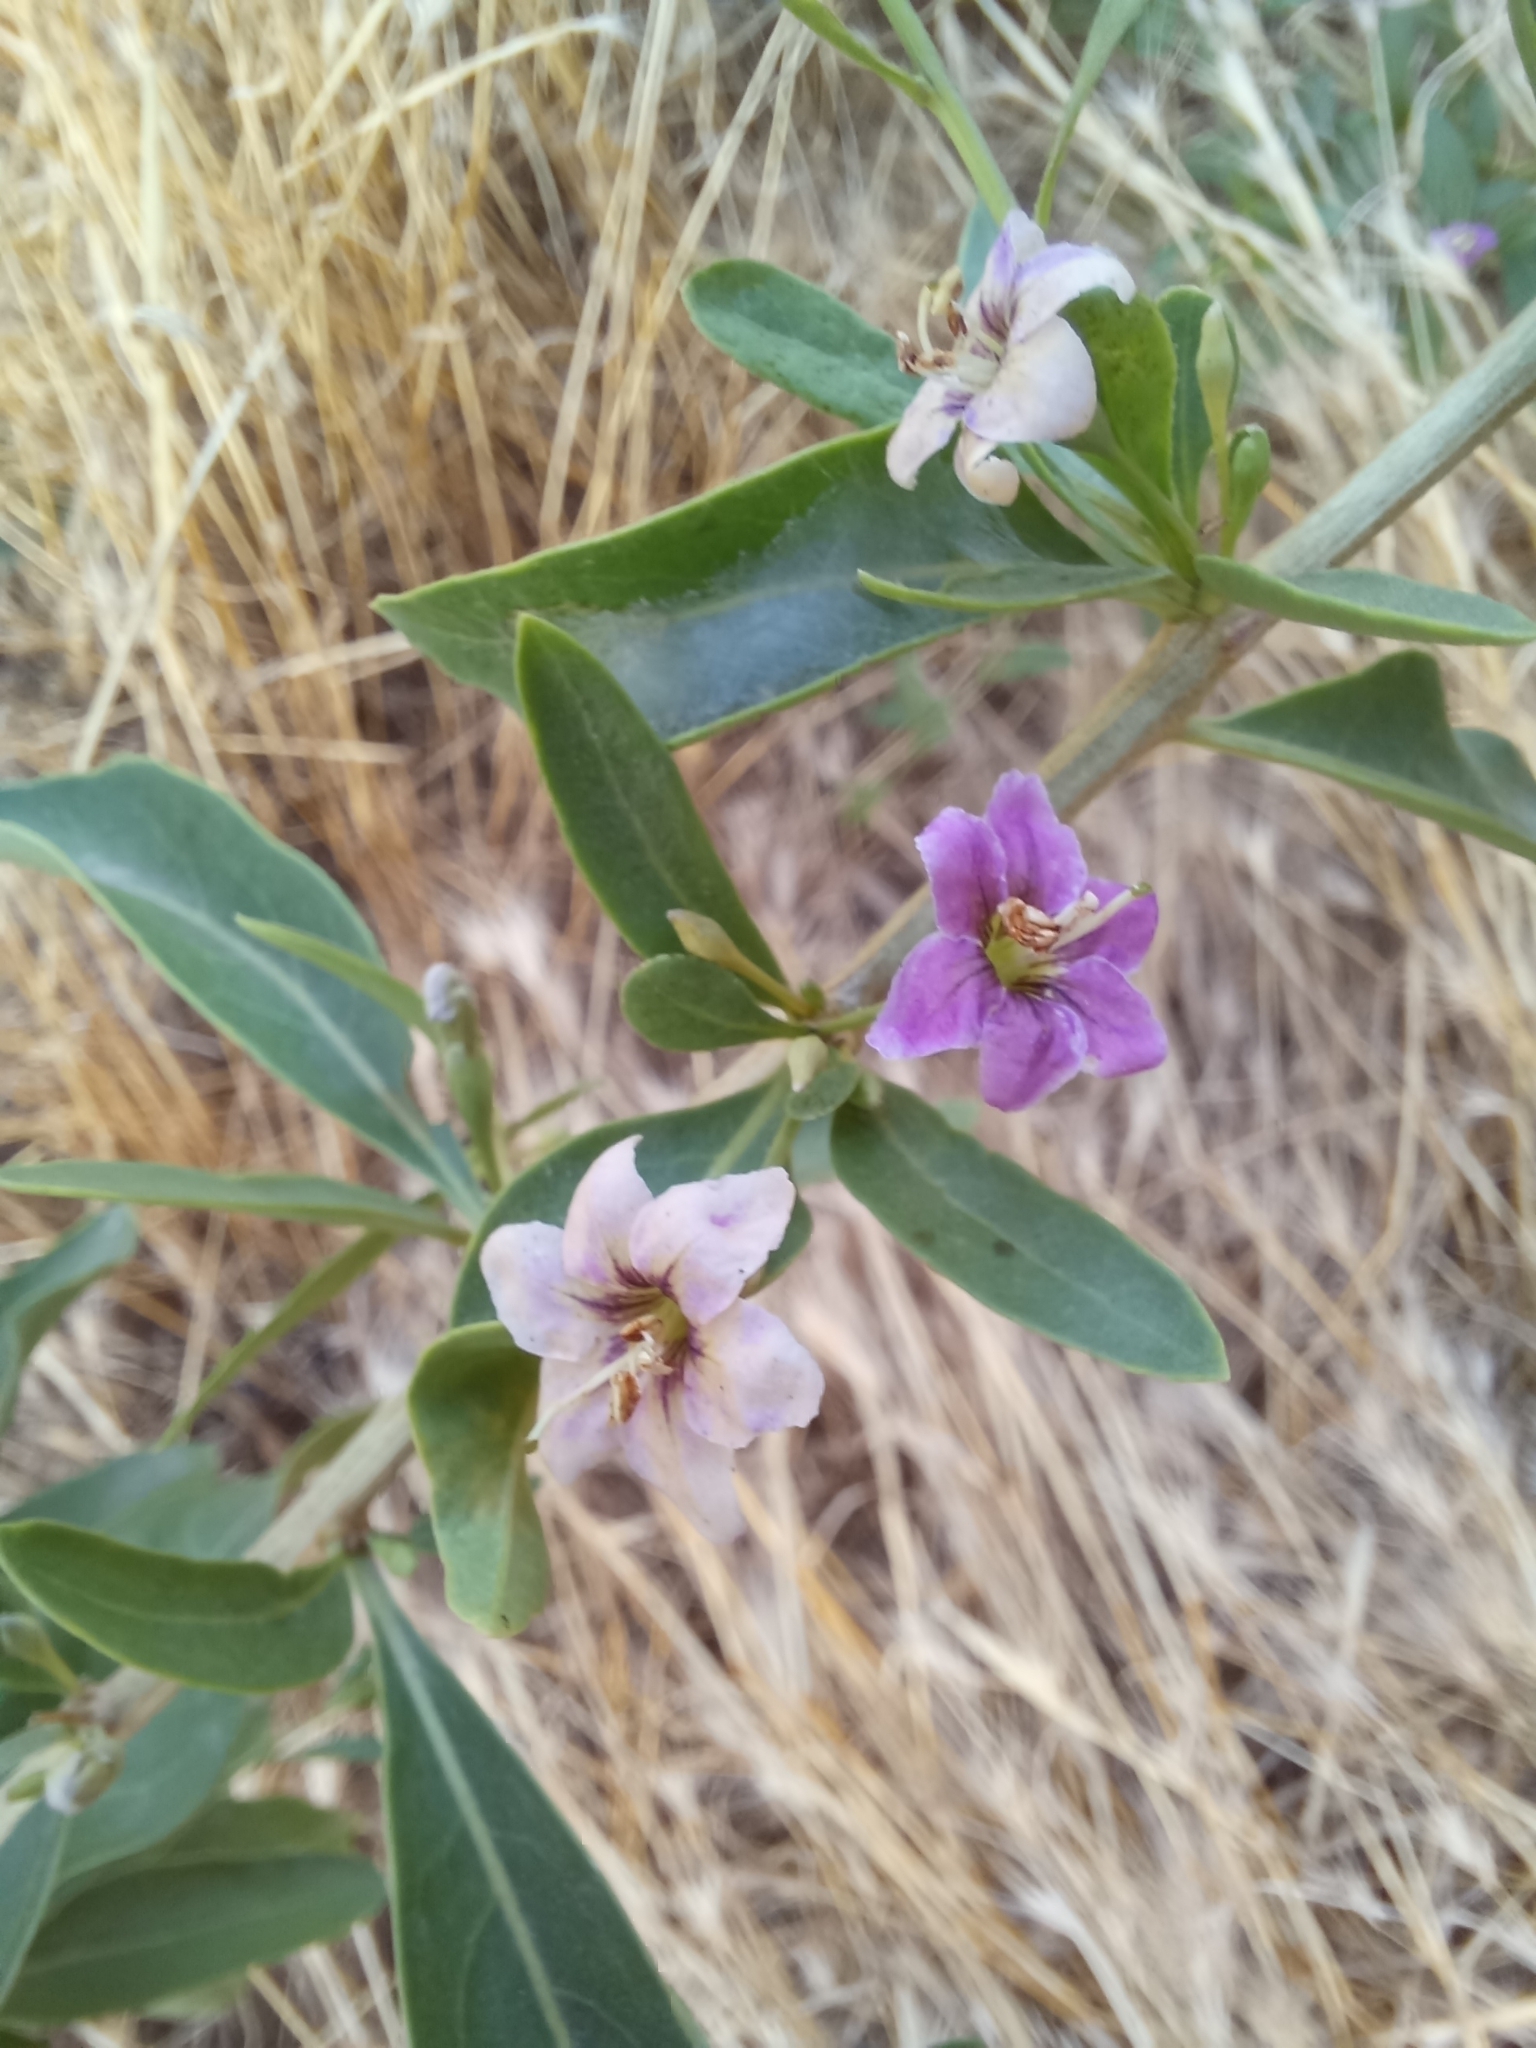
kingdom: Plantae
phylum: Tracheophyta
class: Magnoliopsida
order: Solanales
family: Solanaceae
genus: Lycium
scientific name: Lycium barbarum
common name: Duke of argyll's teaplant
